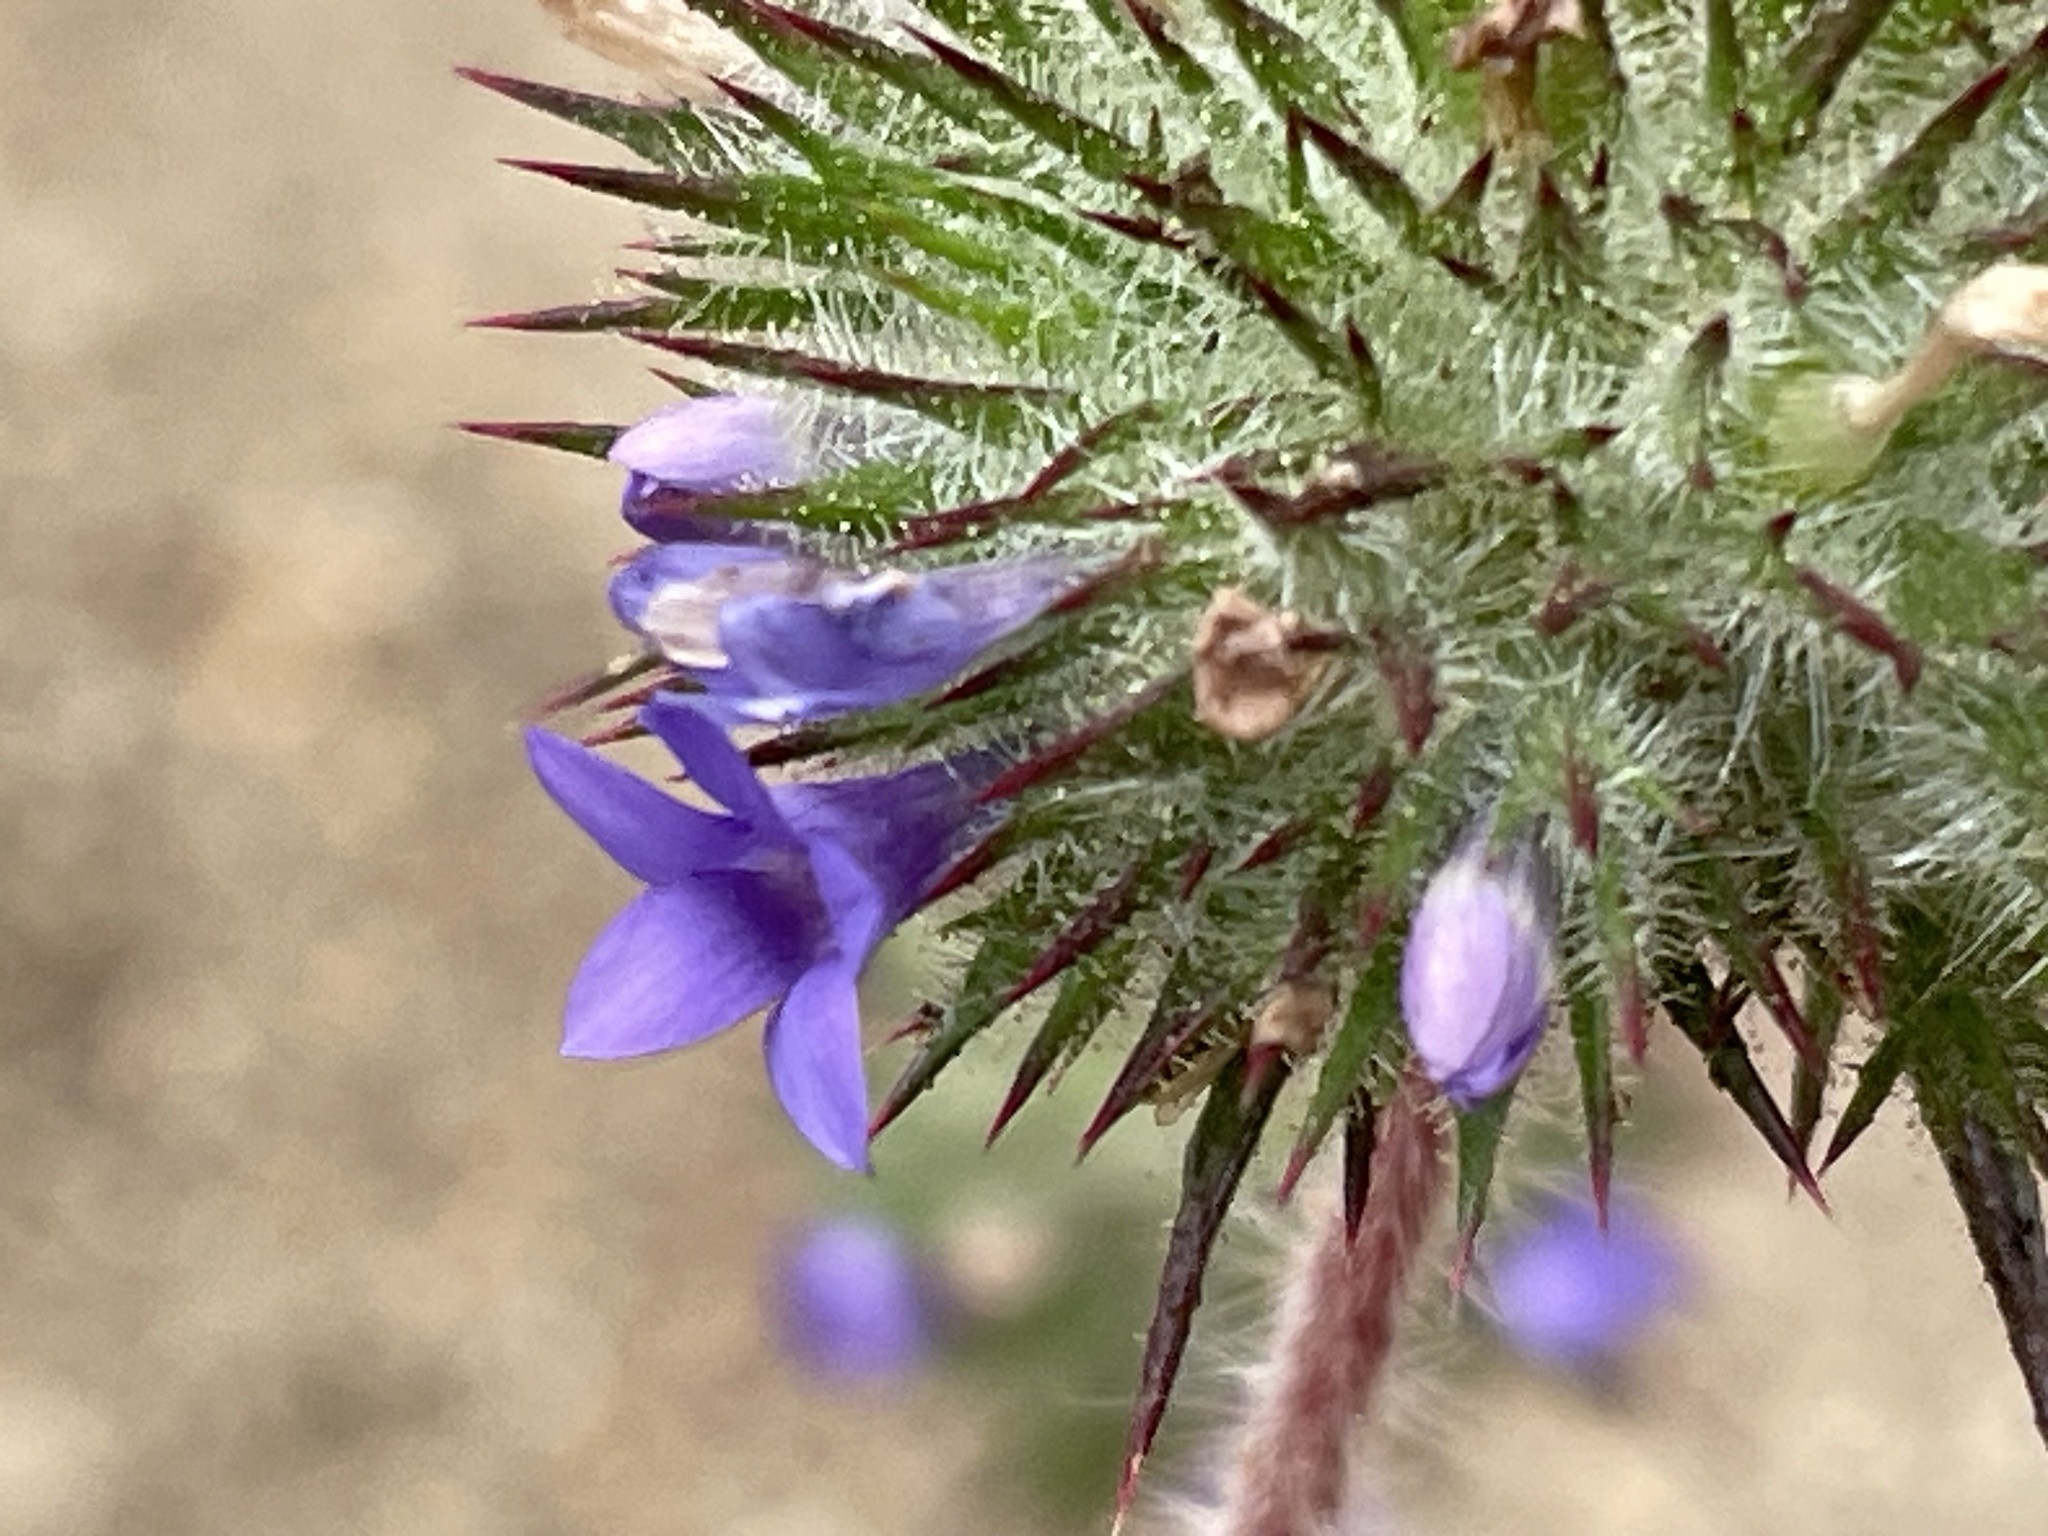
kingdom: Plantae
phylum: Tracheophyta
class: Magnoliopsida
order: Ericales
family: Polemoniaceae
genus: Navarretia
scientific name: Navarretia squarrosa
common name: Skunkweed
